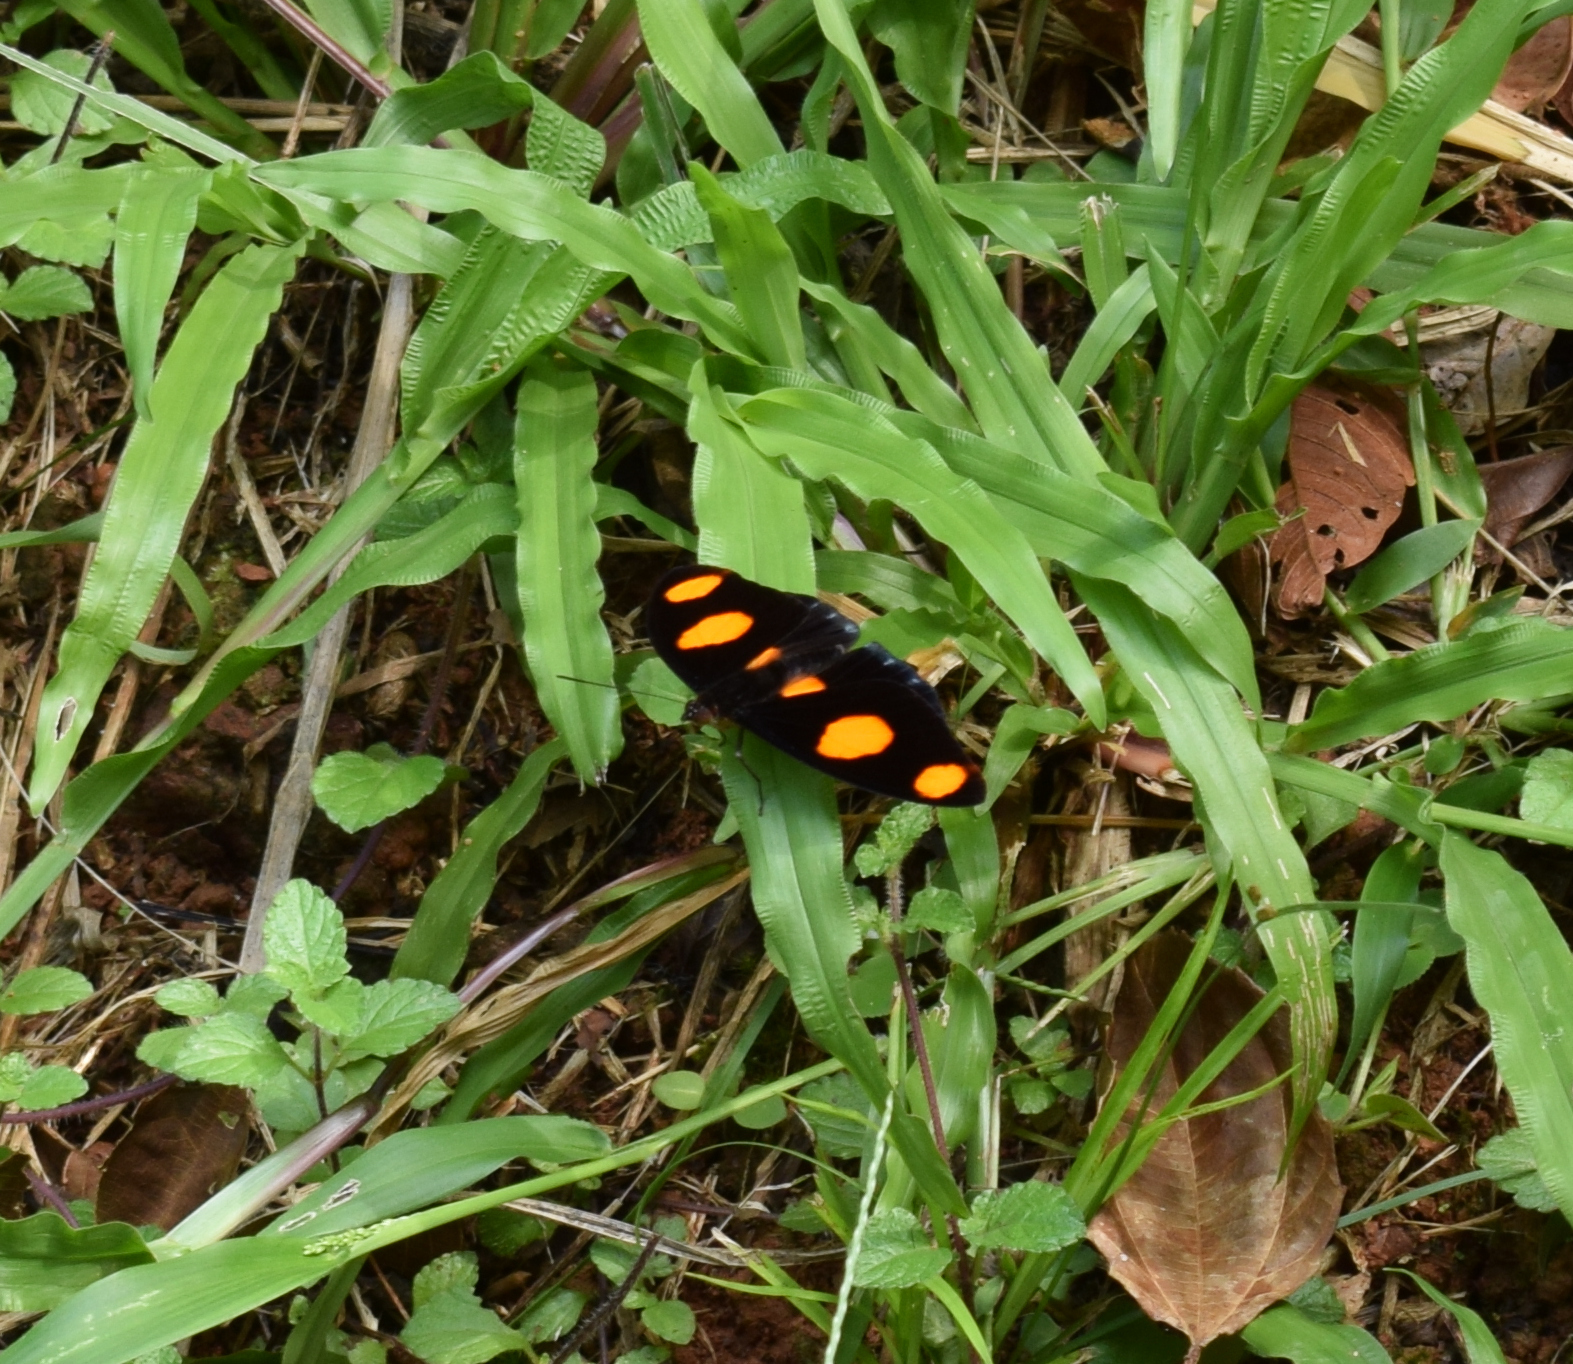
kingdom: Animalia
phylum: Arthropoda
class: Insecta
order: Lepidoptera
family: Nymphalidae
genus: Catonephele
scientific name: Catonephele numilia
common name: Blue-frosted banner
